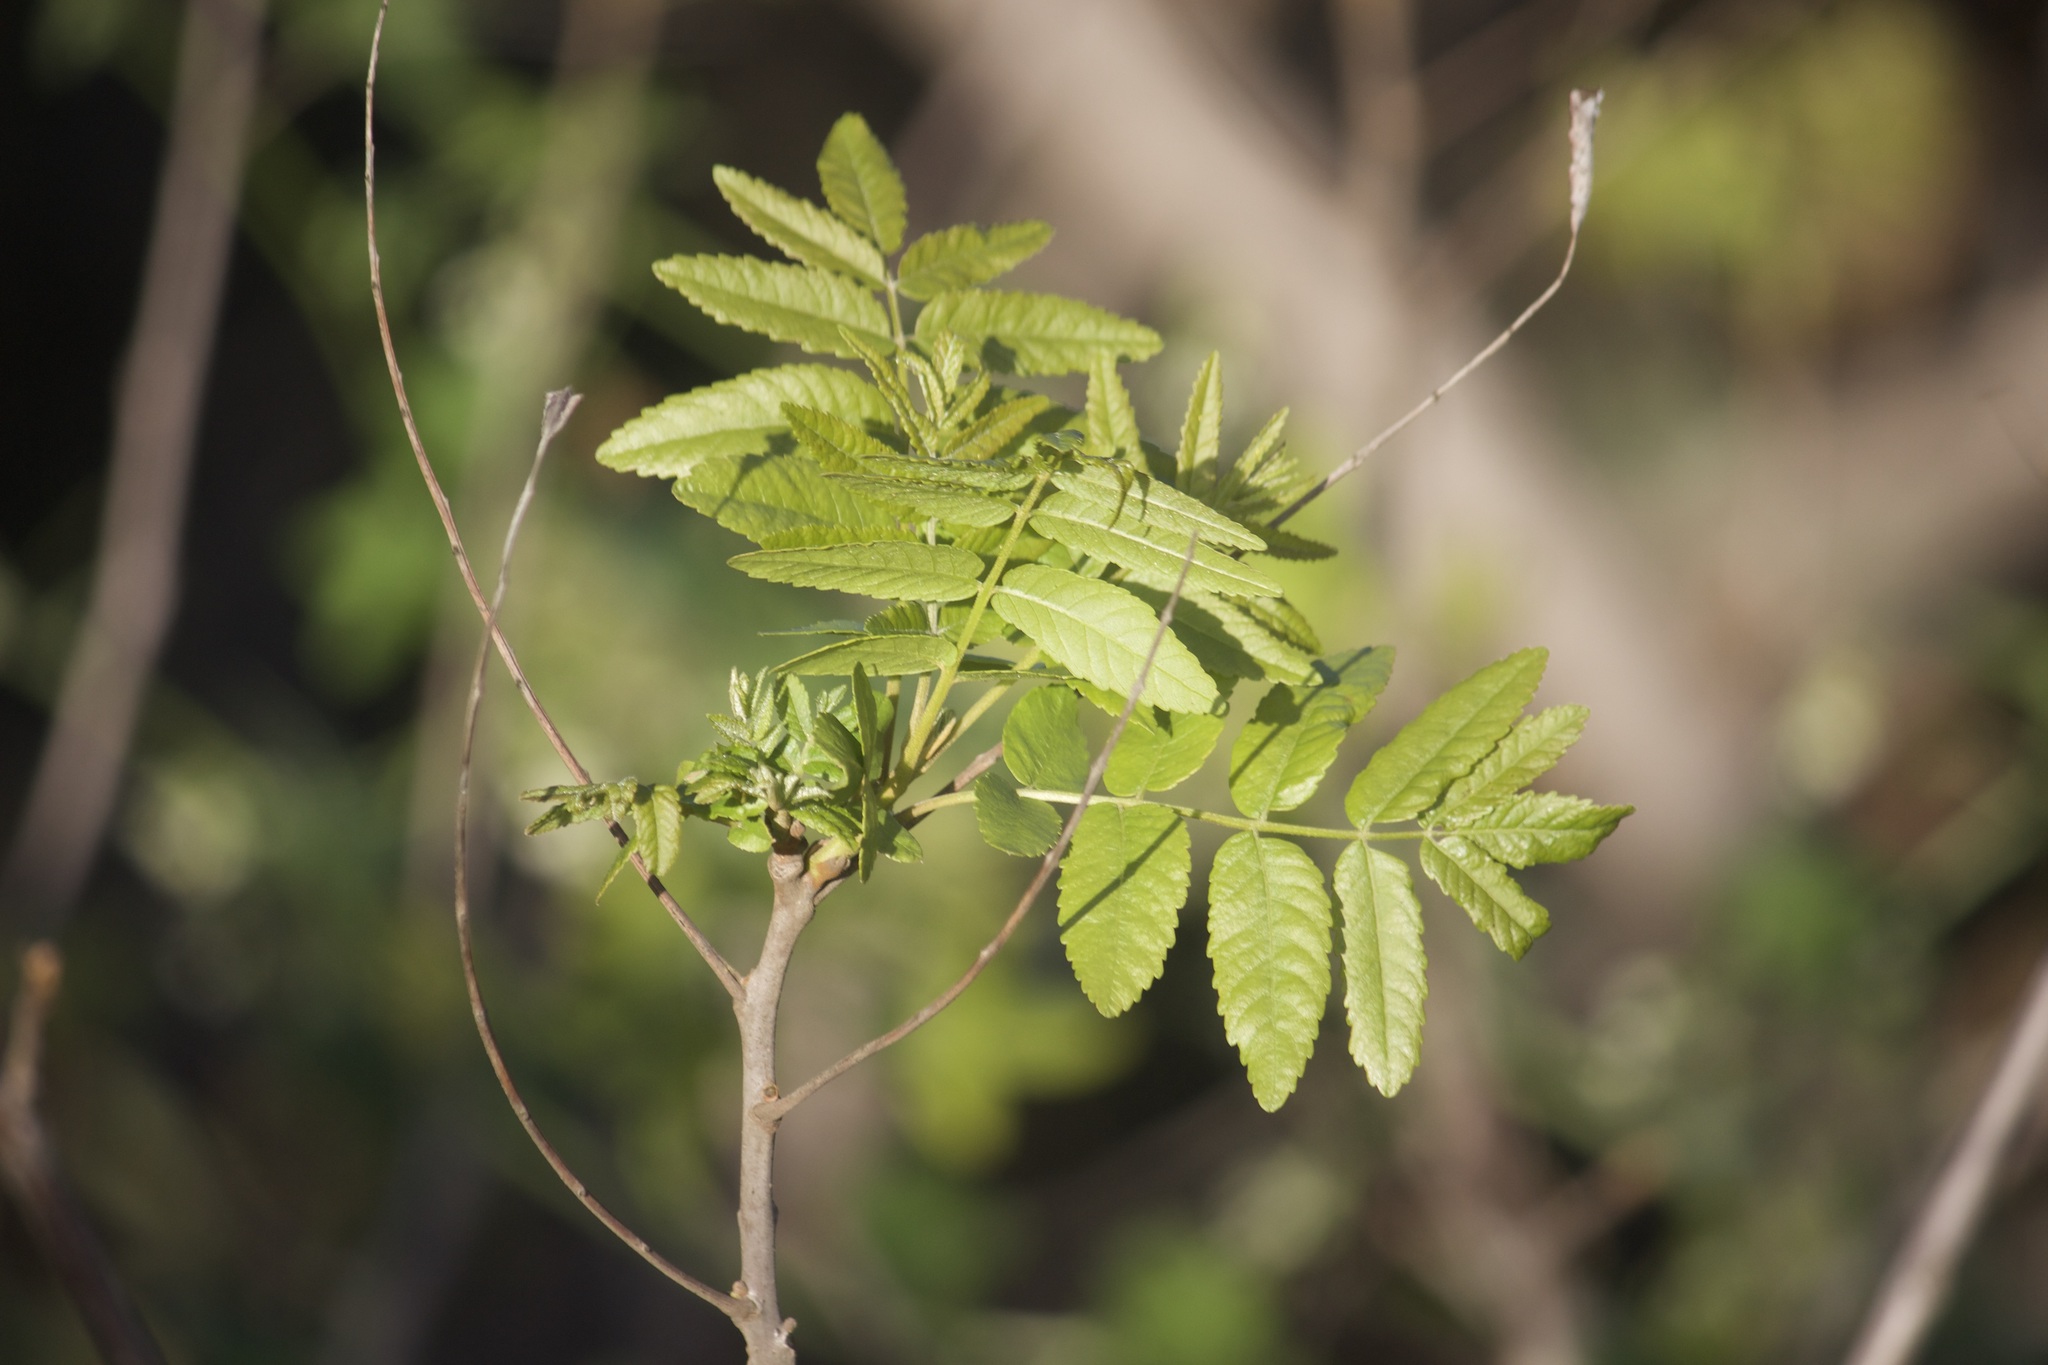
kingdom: Plantae
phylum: Tracheophyta
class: Magnoliopsida
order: Fagales
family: Juglandaceae
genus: Juglans
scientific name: Juglans californica
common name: Southern california black walnut
